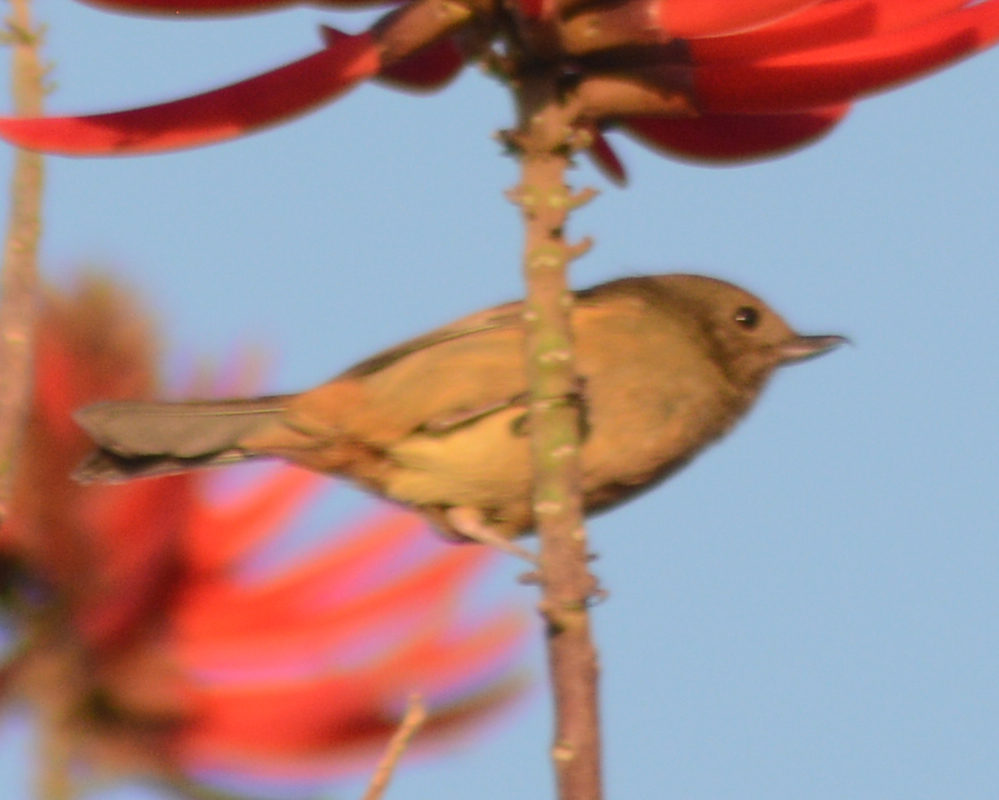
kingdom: Animalia
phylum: Chordata
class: Aves
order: Passeriformes
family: Thraupidae
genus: Diglossa
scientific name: Diglossa baritula
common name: Cinnamon-bellied flowerpiercer
